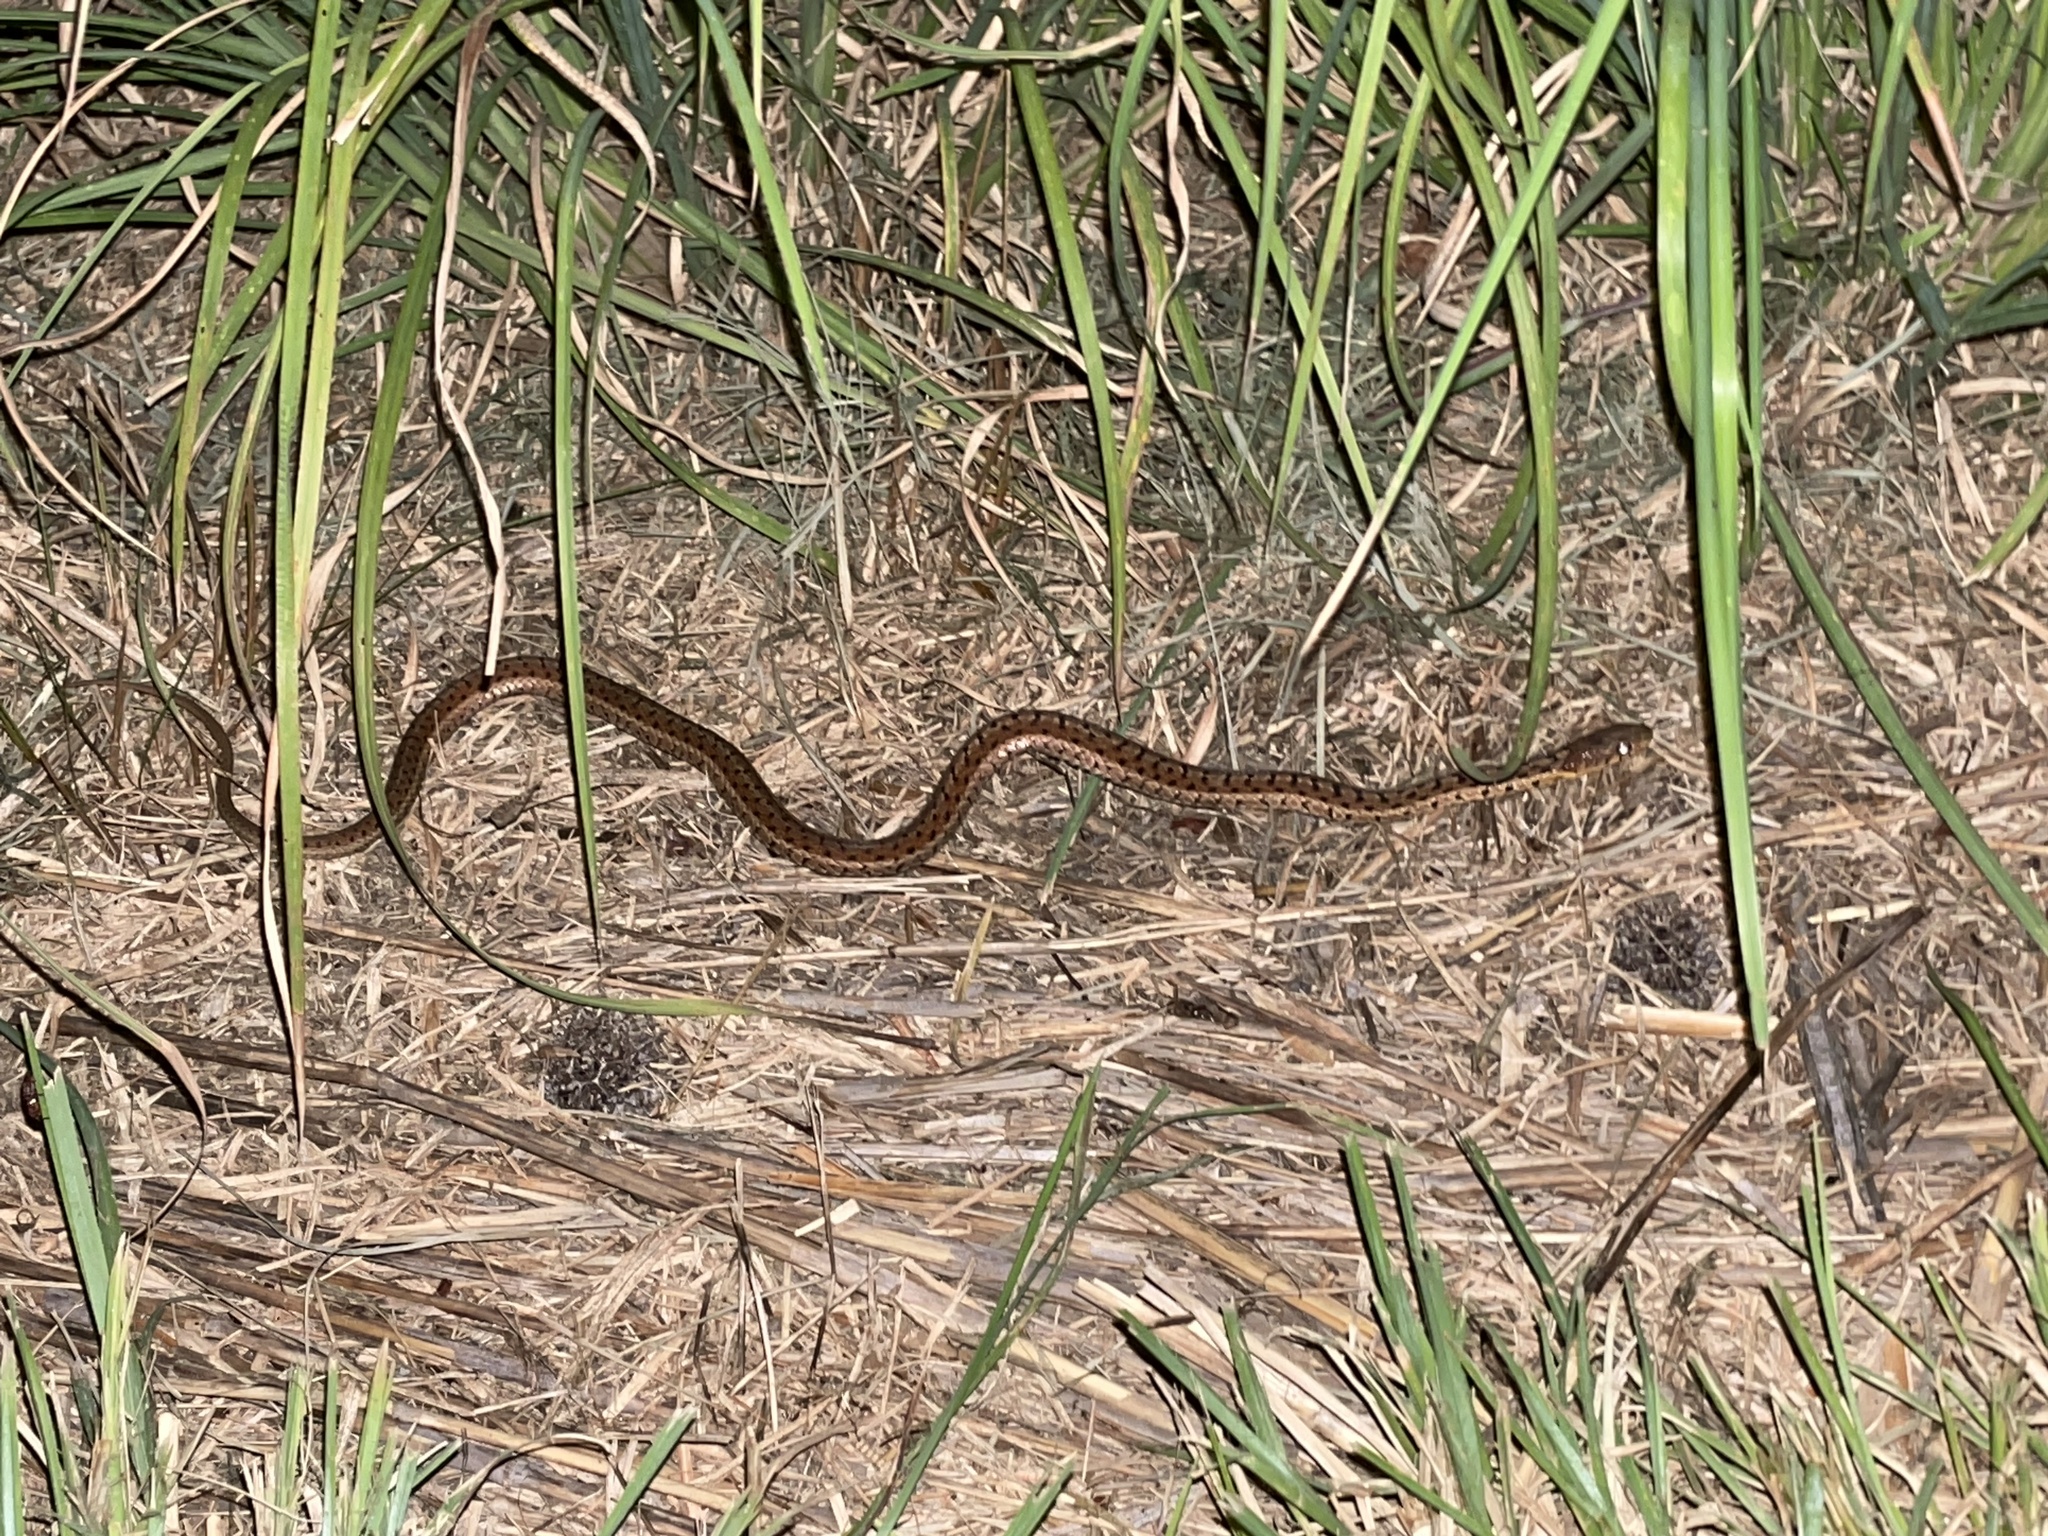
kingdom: Animalia
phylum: Chordata
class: Squamata
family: Colubridae
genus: Thamnophis
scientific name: Thamnophis sirtalis
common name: Common garter snake
